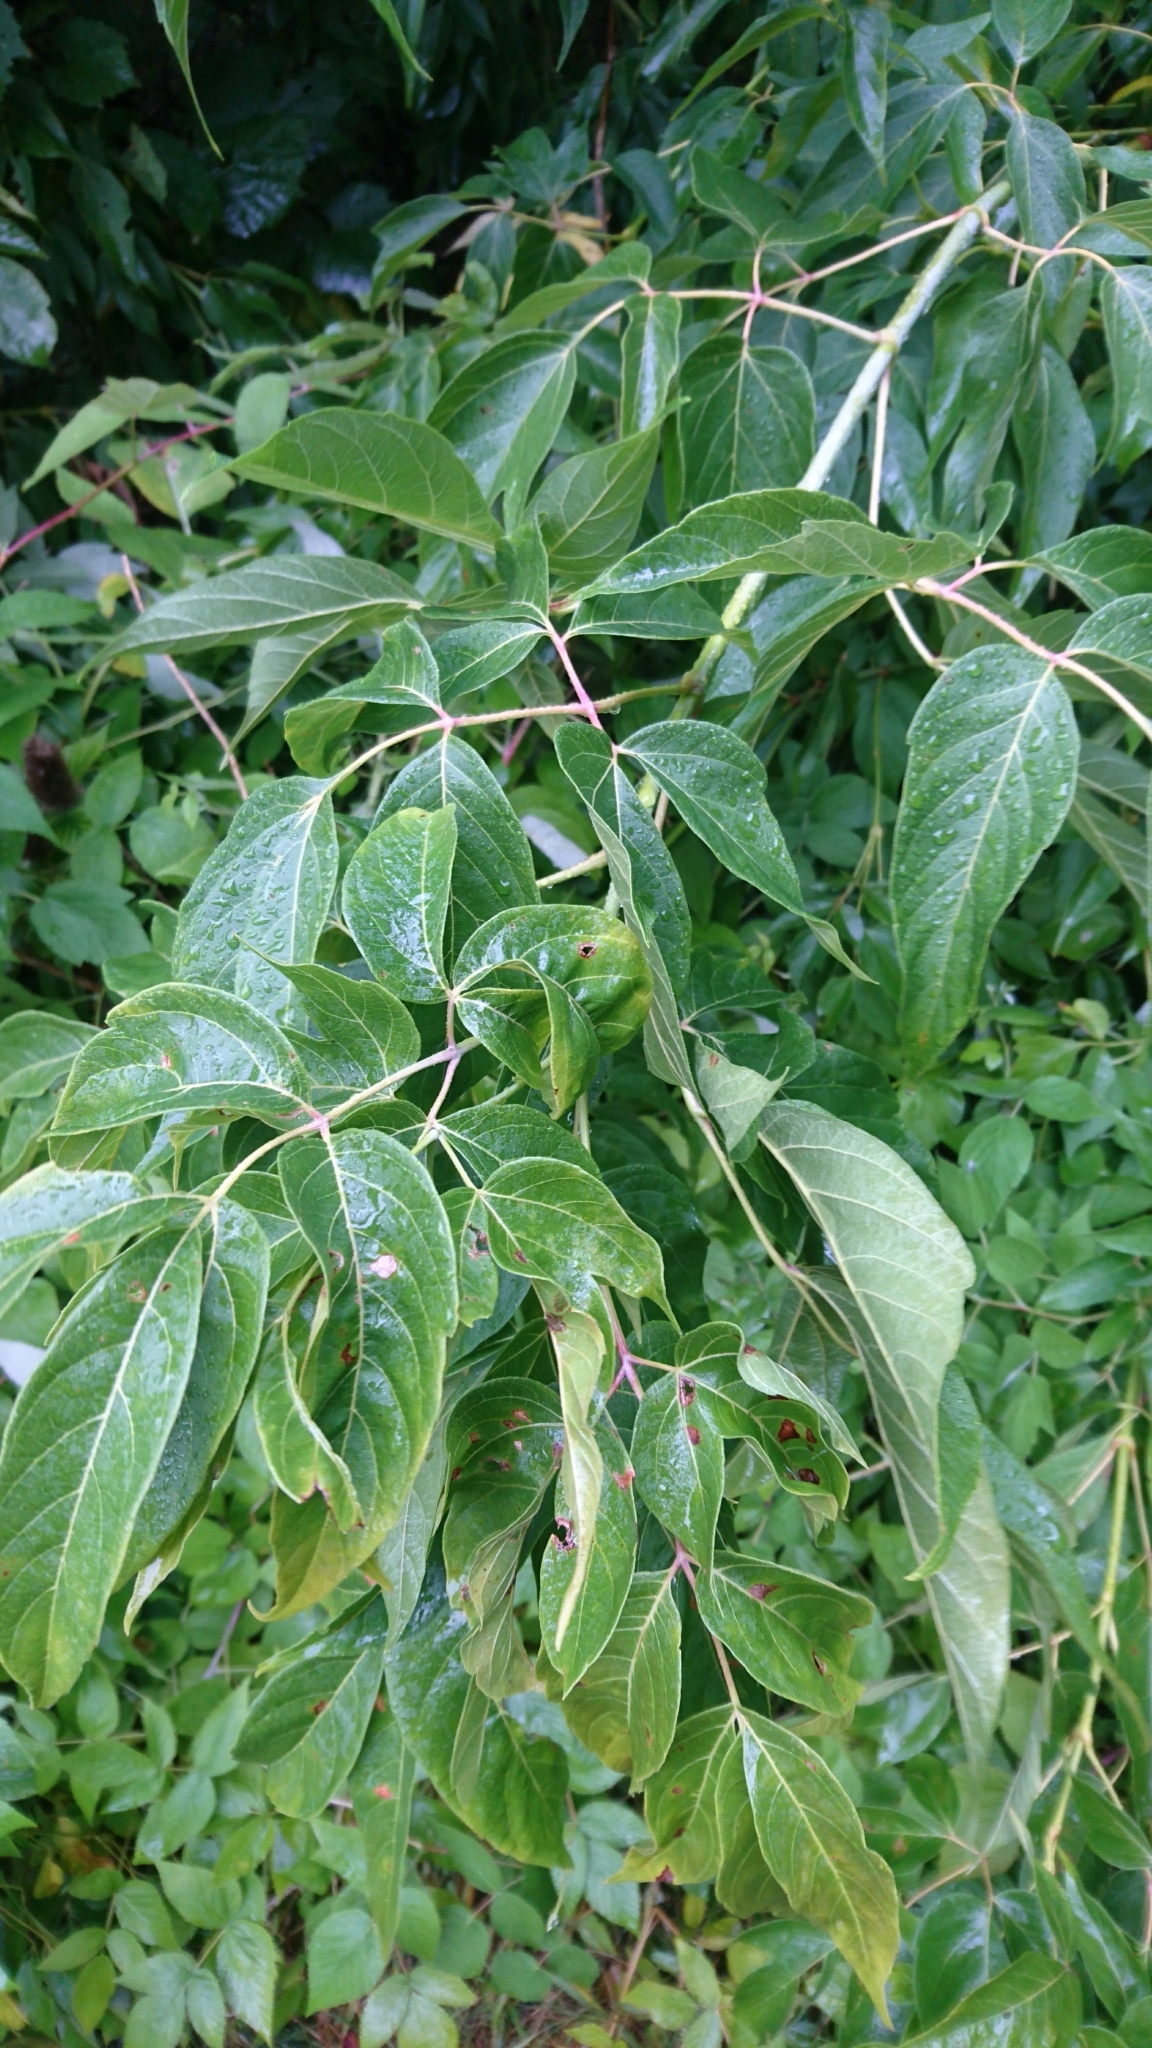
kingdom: Plantae
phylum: Tracheophyta
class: Magnoliopsida
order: Sapindales
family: Sapindaceae
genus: Acer
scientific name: Acer negundo
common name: Ashleaf maple
